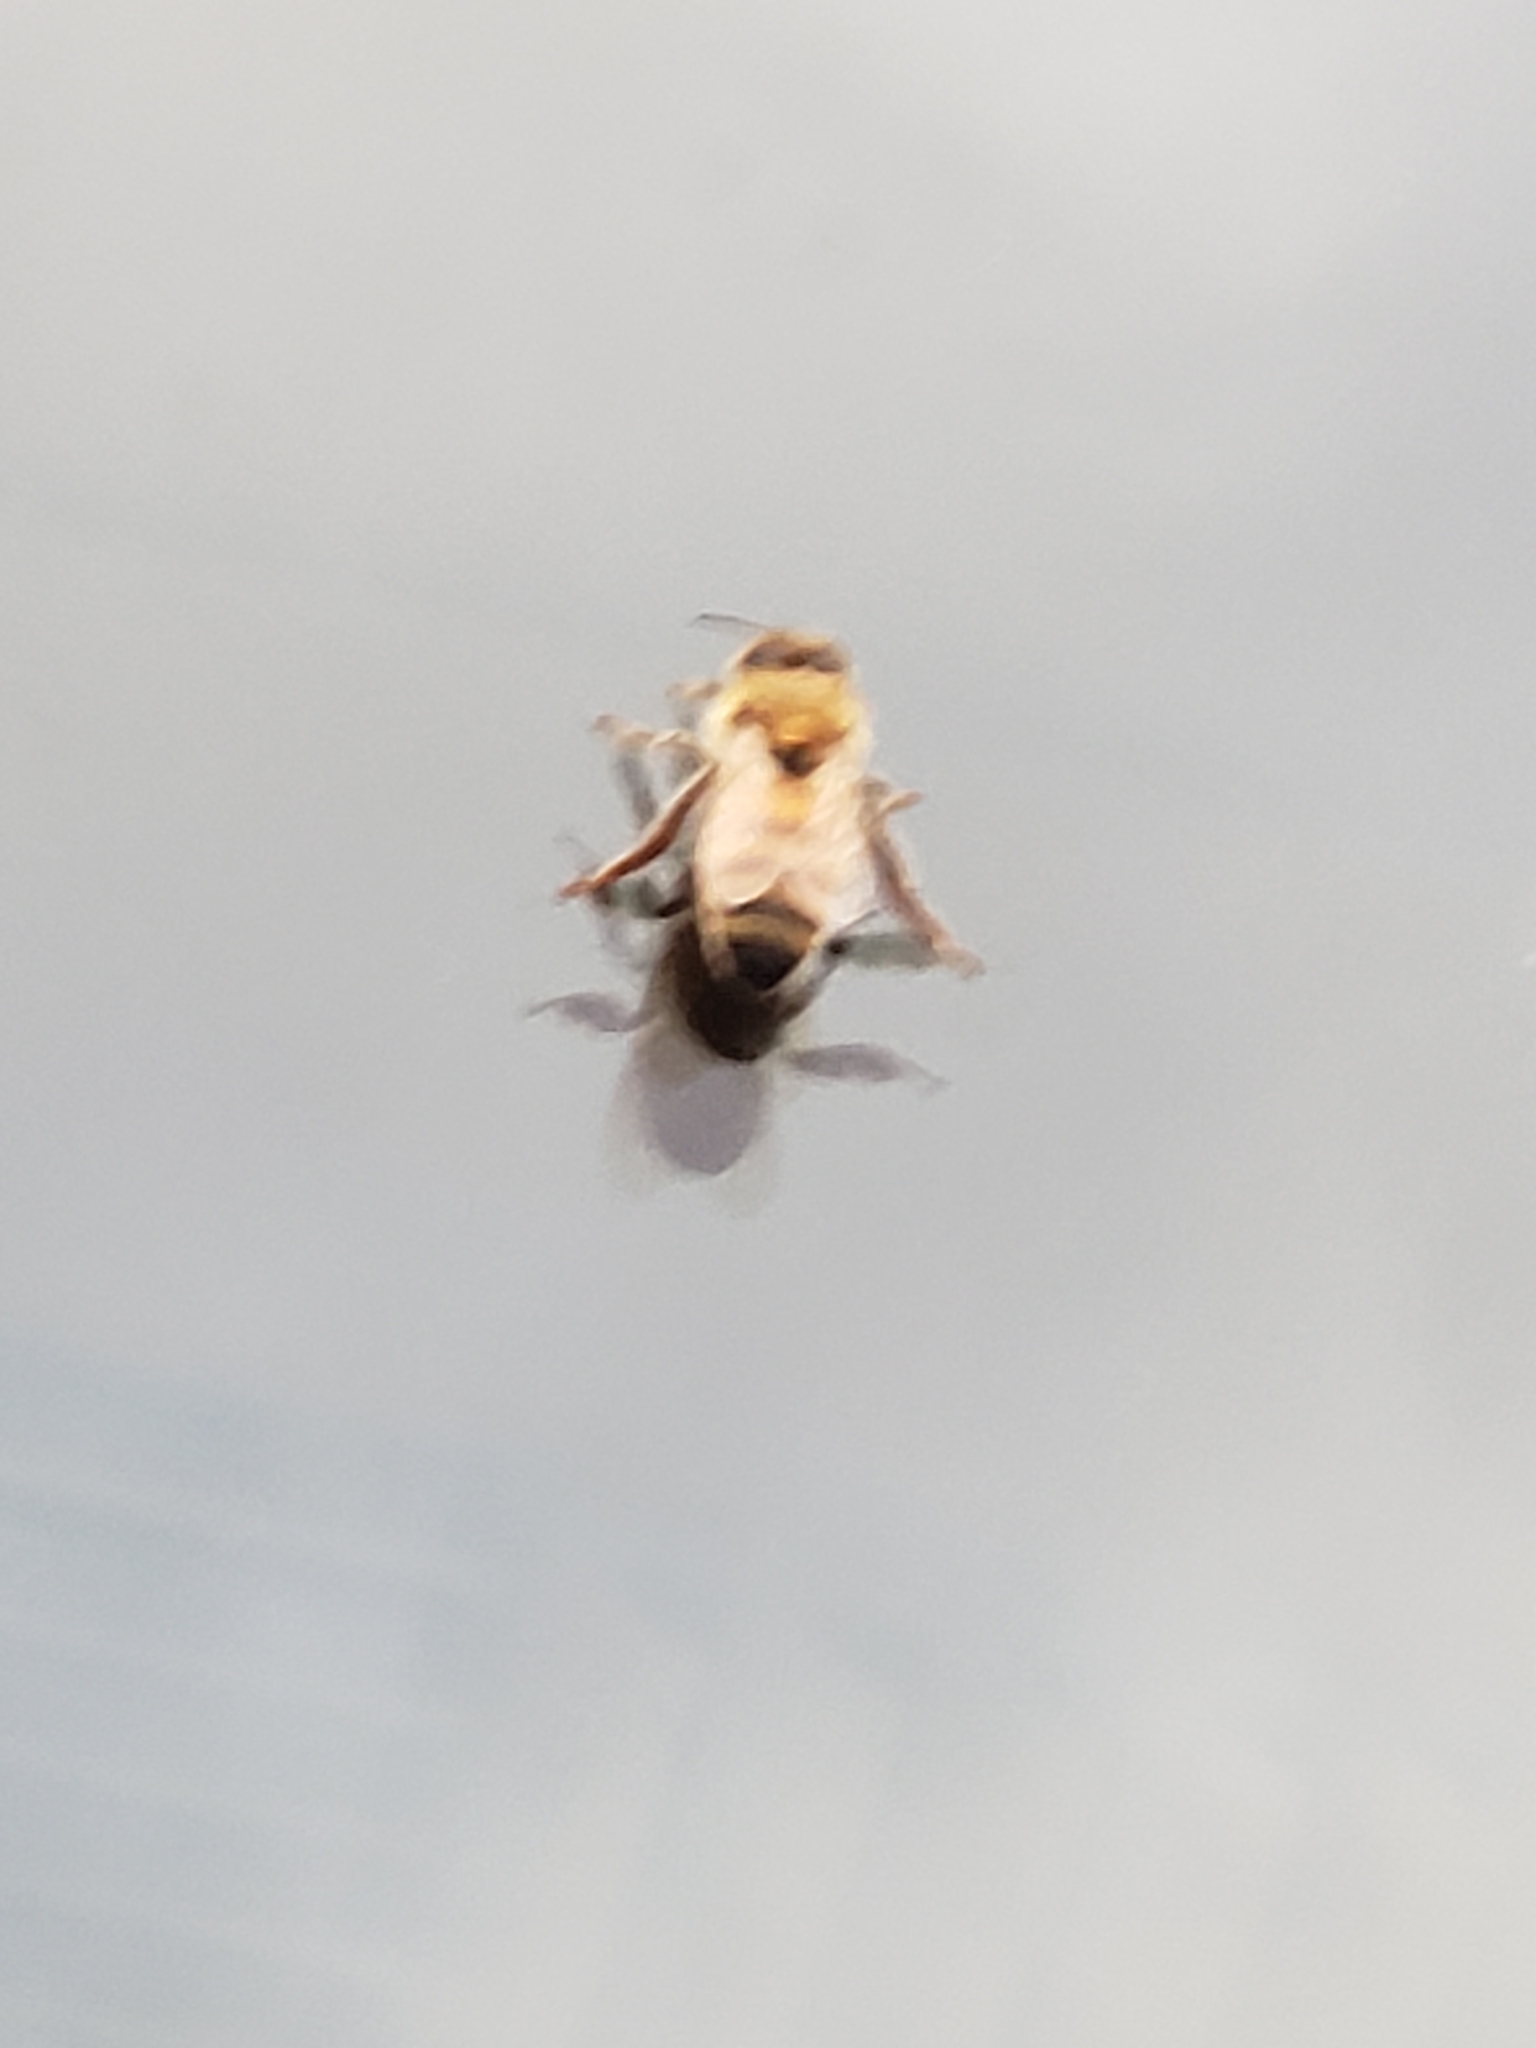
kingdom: Animalia
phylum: Arthropoda
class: Insecta
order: Hymenoptera
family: Apidae
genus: Apis
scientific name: Apis mellifera
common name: Honey bee
